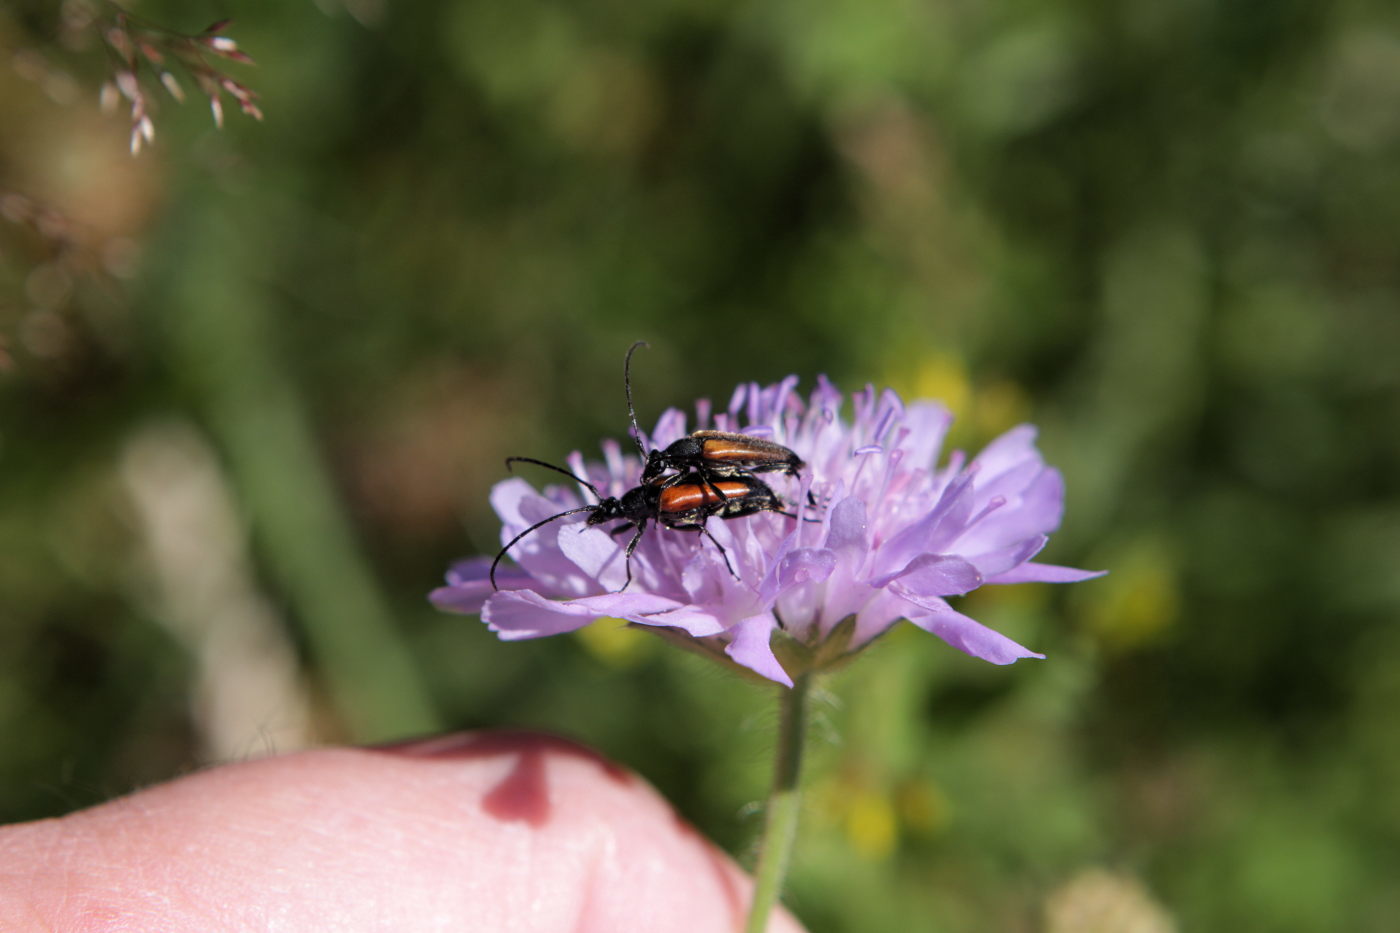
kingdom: Animalia
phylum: Arthropoda
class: Insecta
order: Coleoptera
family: Cerambycidae
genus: Stenurella
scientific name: Stenurella melanura
